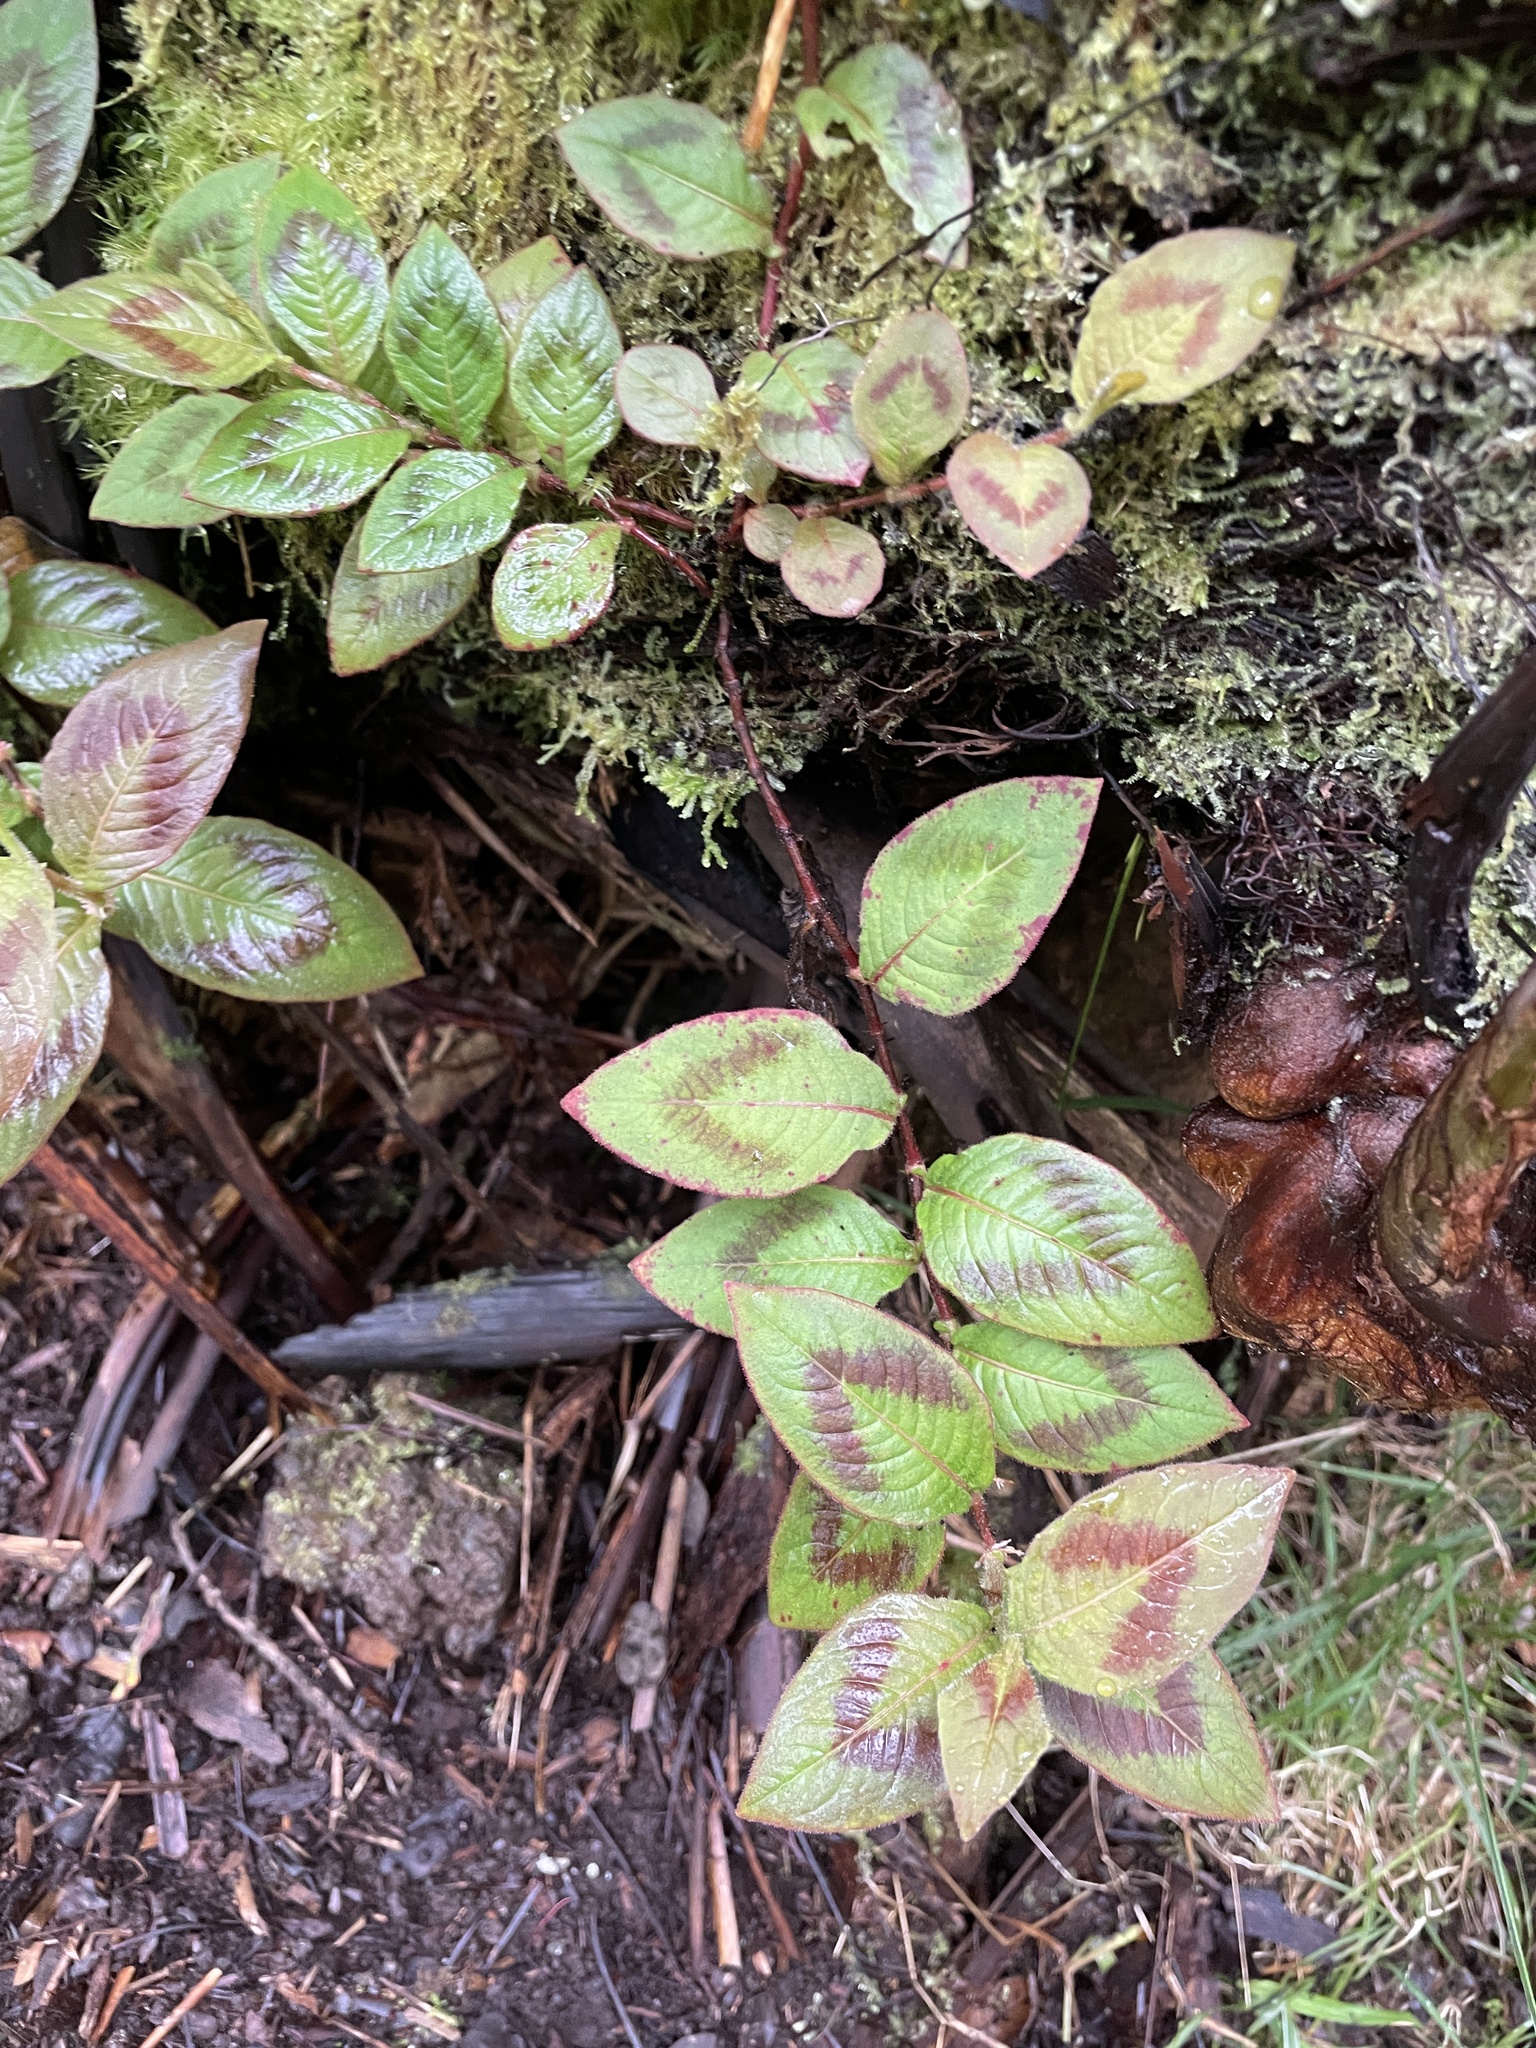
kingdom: Plantae
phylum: Tracheophyta
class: Magnoliopsida
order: Caryophyllales
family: Polygonaceae
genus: Persicaria
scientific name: Persicaria capitata
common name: Pinkhead smartweed
